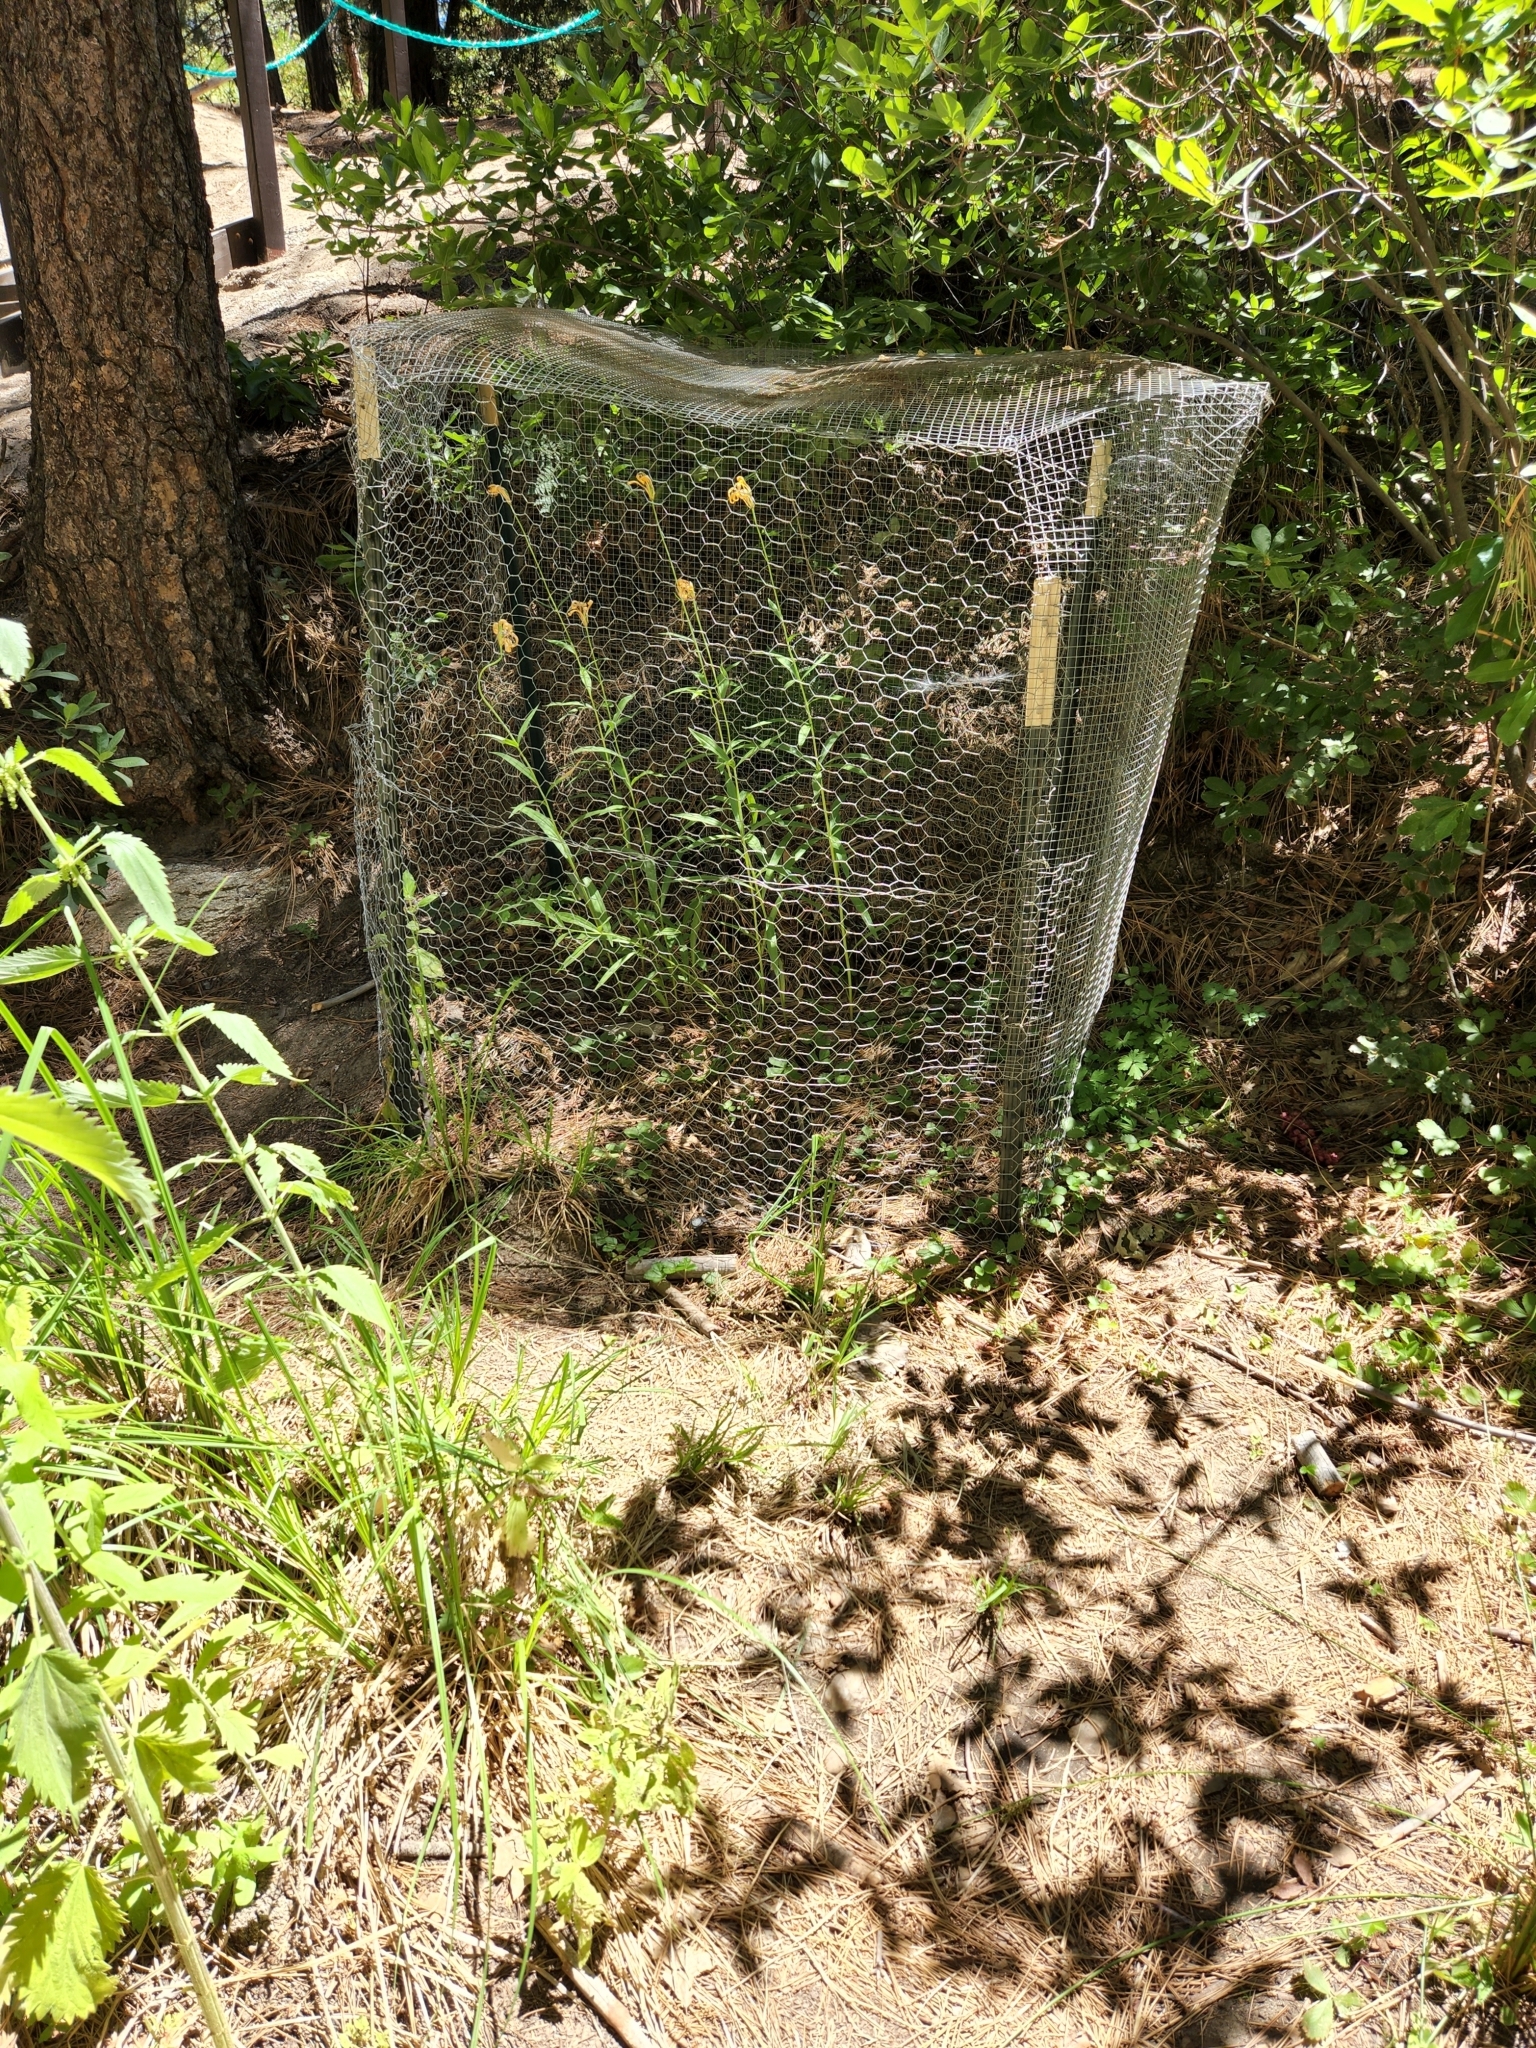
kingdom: Plantae
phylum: Tracheophyta
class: Liliopsida
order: Liliales
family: Liliaceae
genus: Lilium
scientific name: Lilium parryi
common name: Lemon lily
